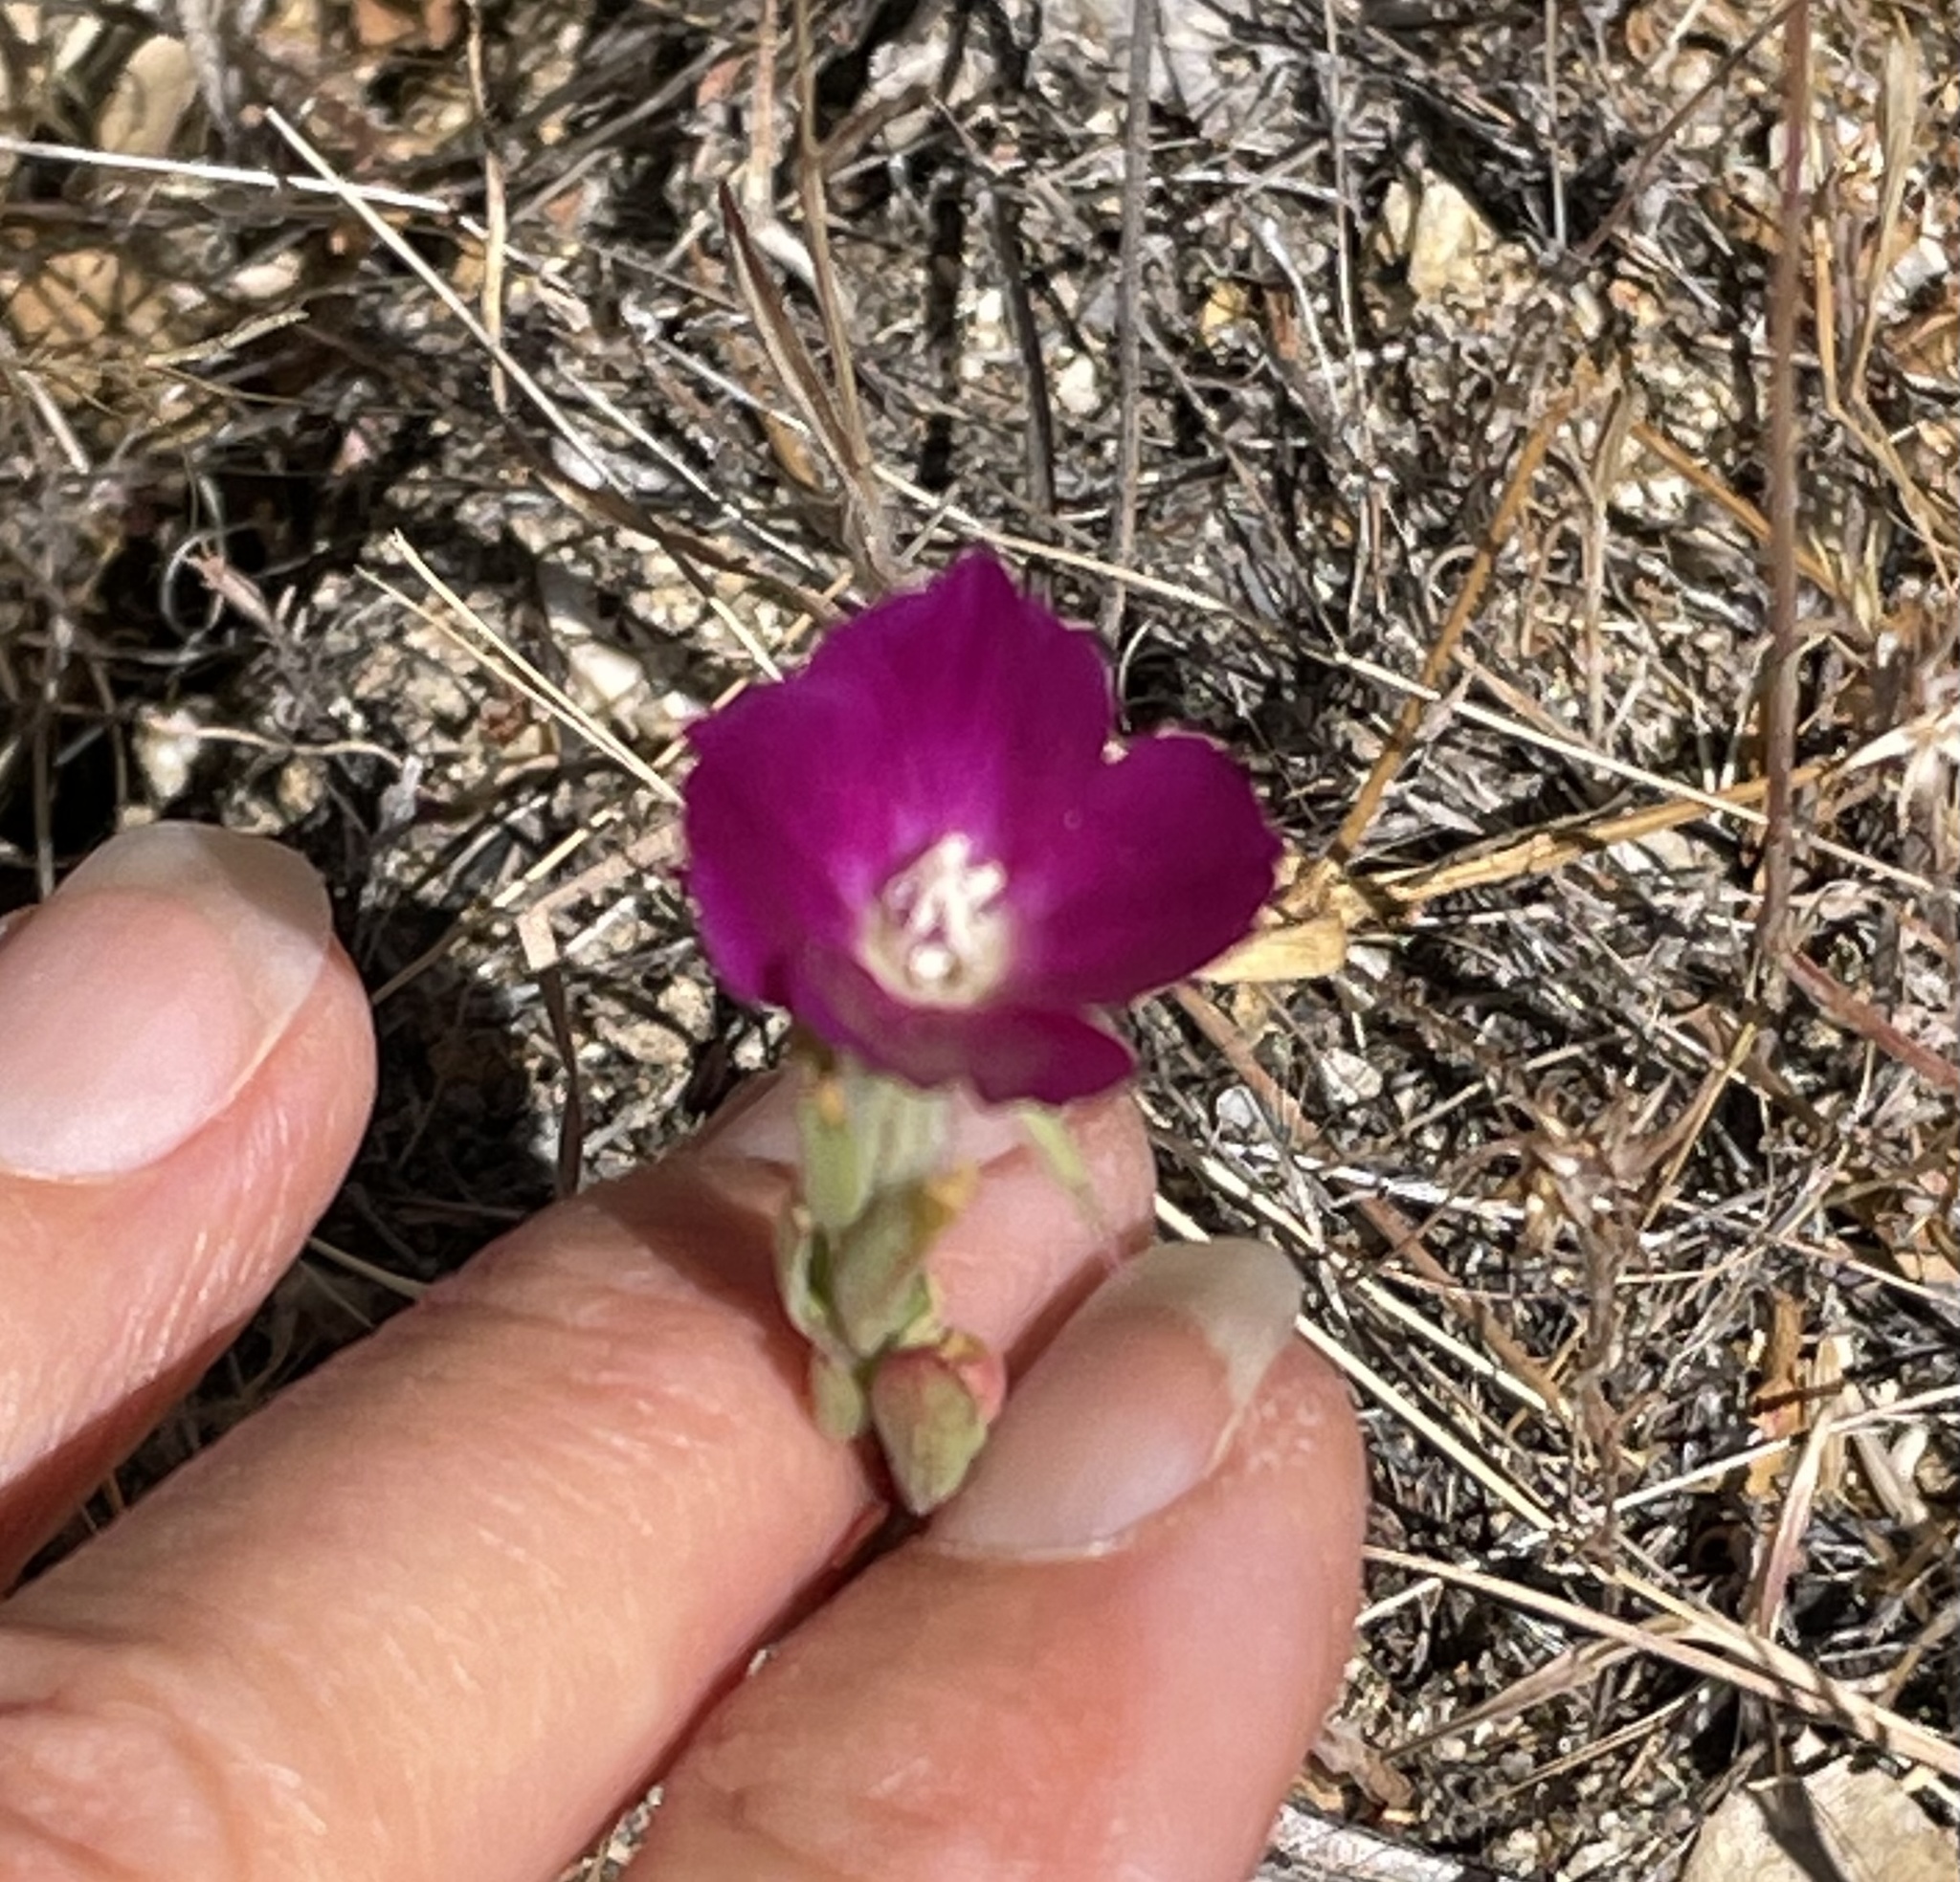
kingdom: Plantae
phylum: Tracheophyta
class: Magnoliopsida
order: Myrtales
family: Onagraceae
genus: Clarkia
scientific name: Clarkia purpurea
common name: Purple clarkia
